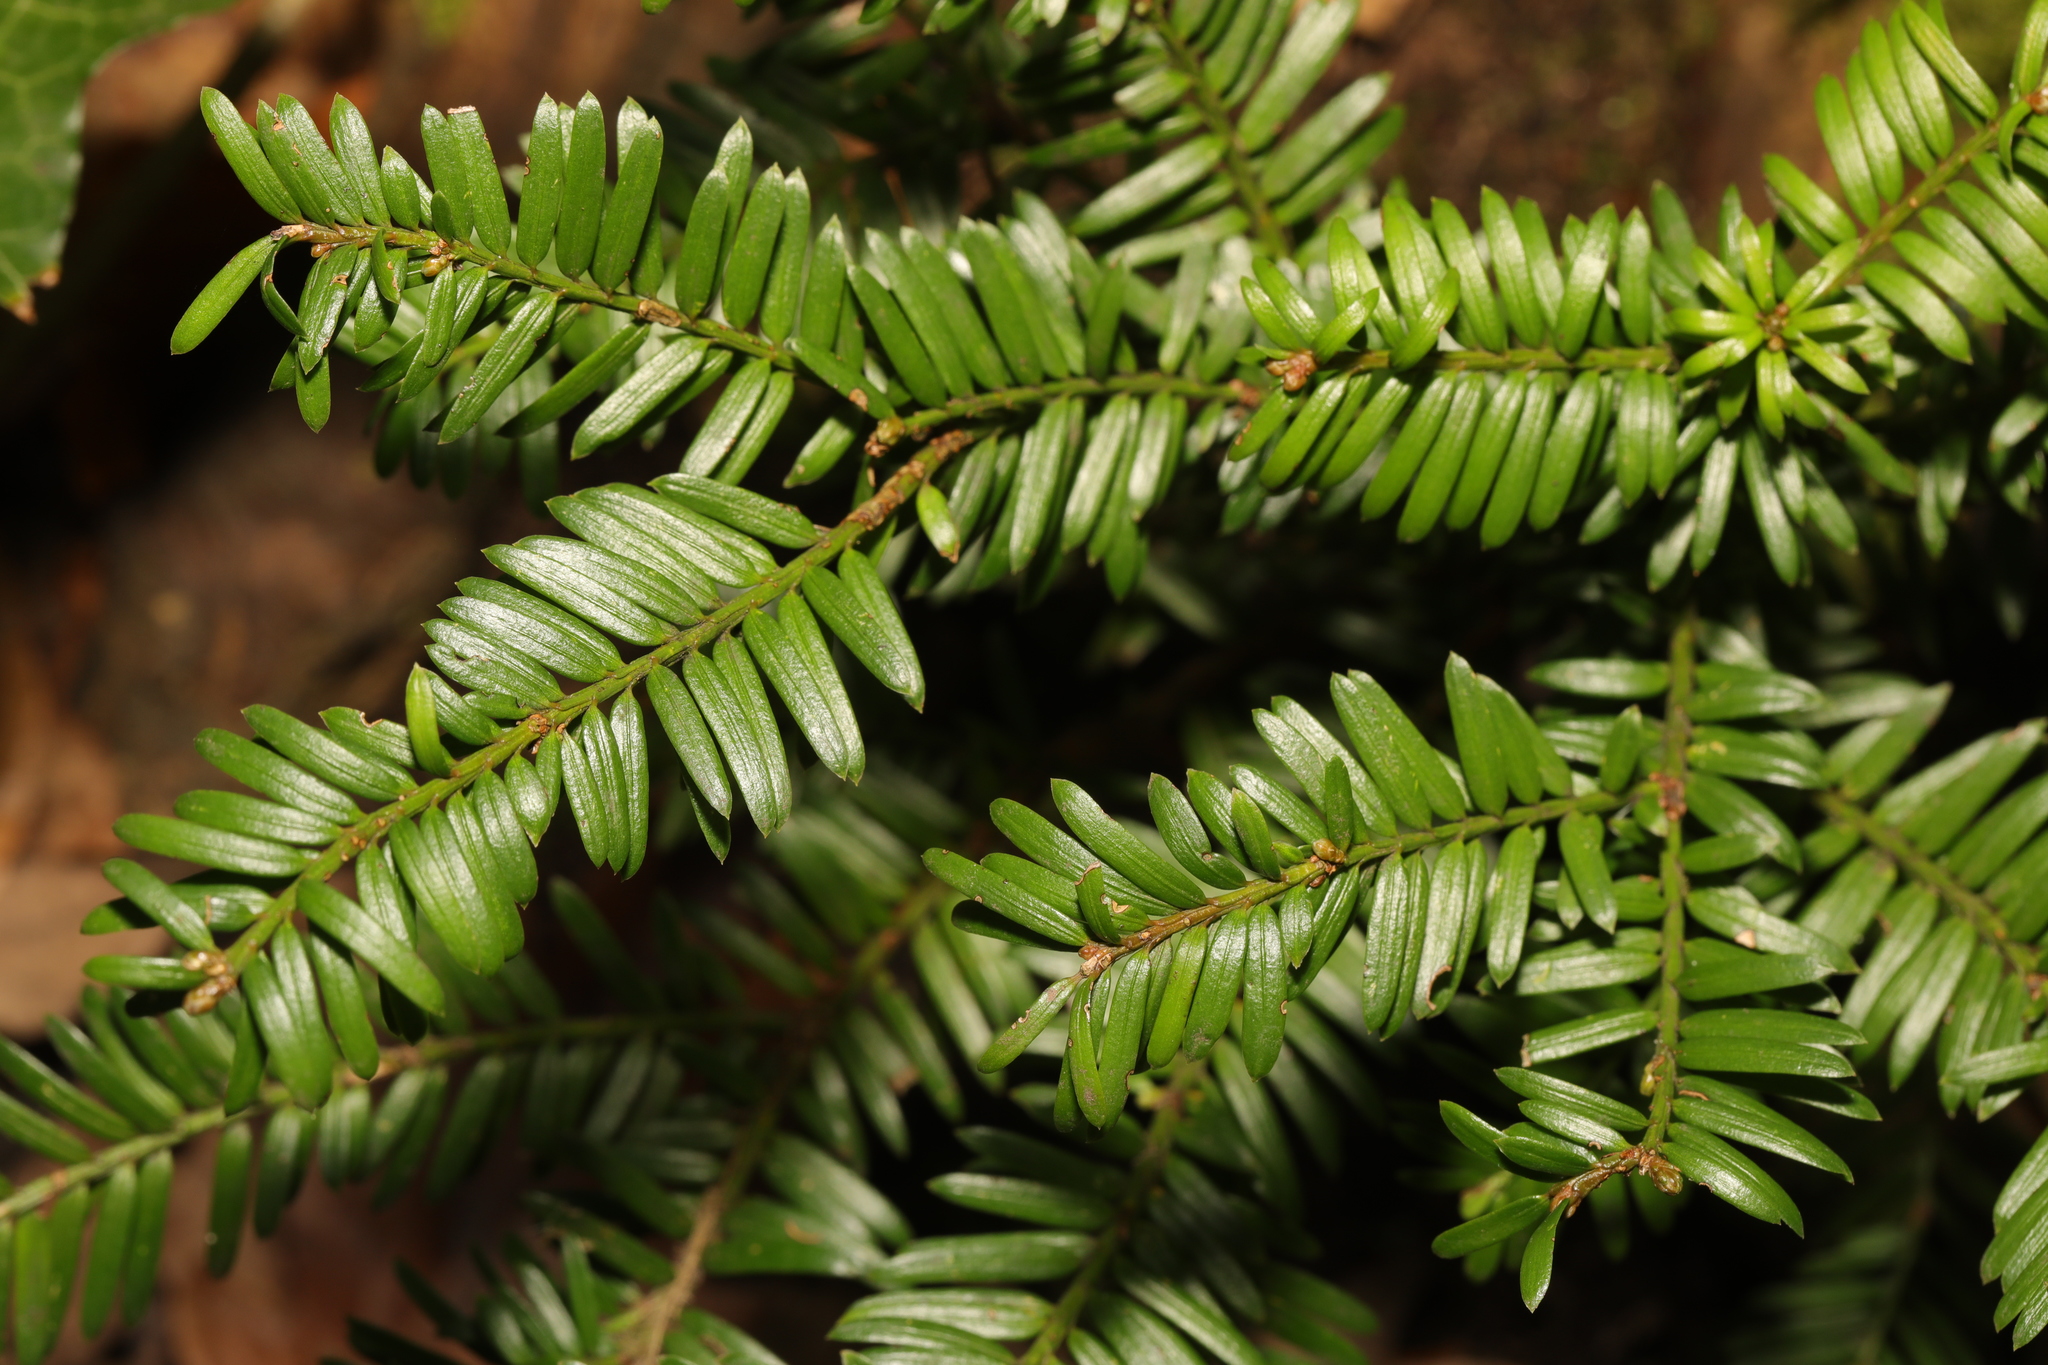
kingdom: Plantae
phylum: Tracheophyta
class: Pinopsida
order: Pinales
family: Taxaceae
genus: Taxus
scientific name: Taxus baccata
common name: Yew
